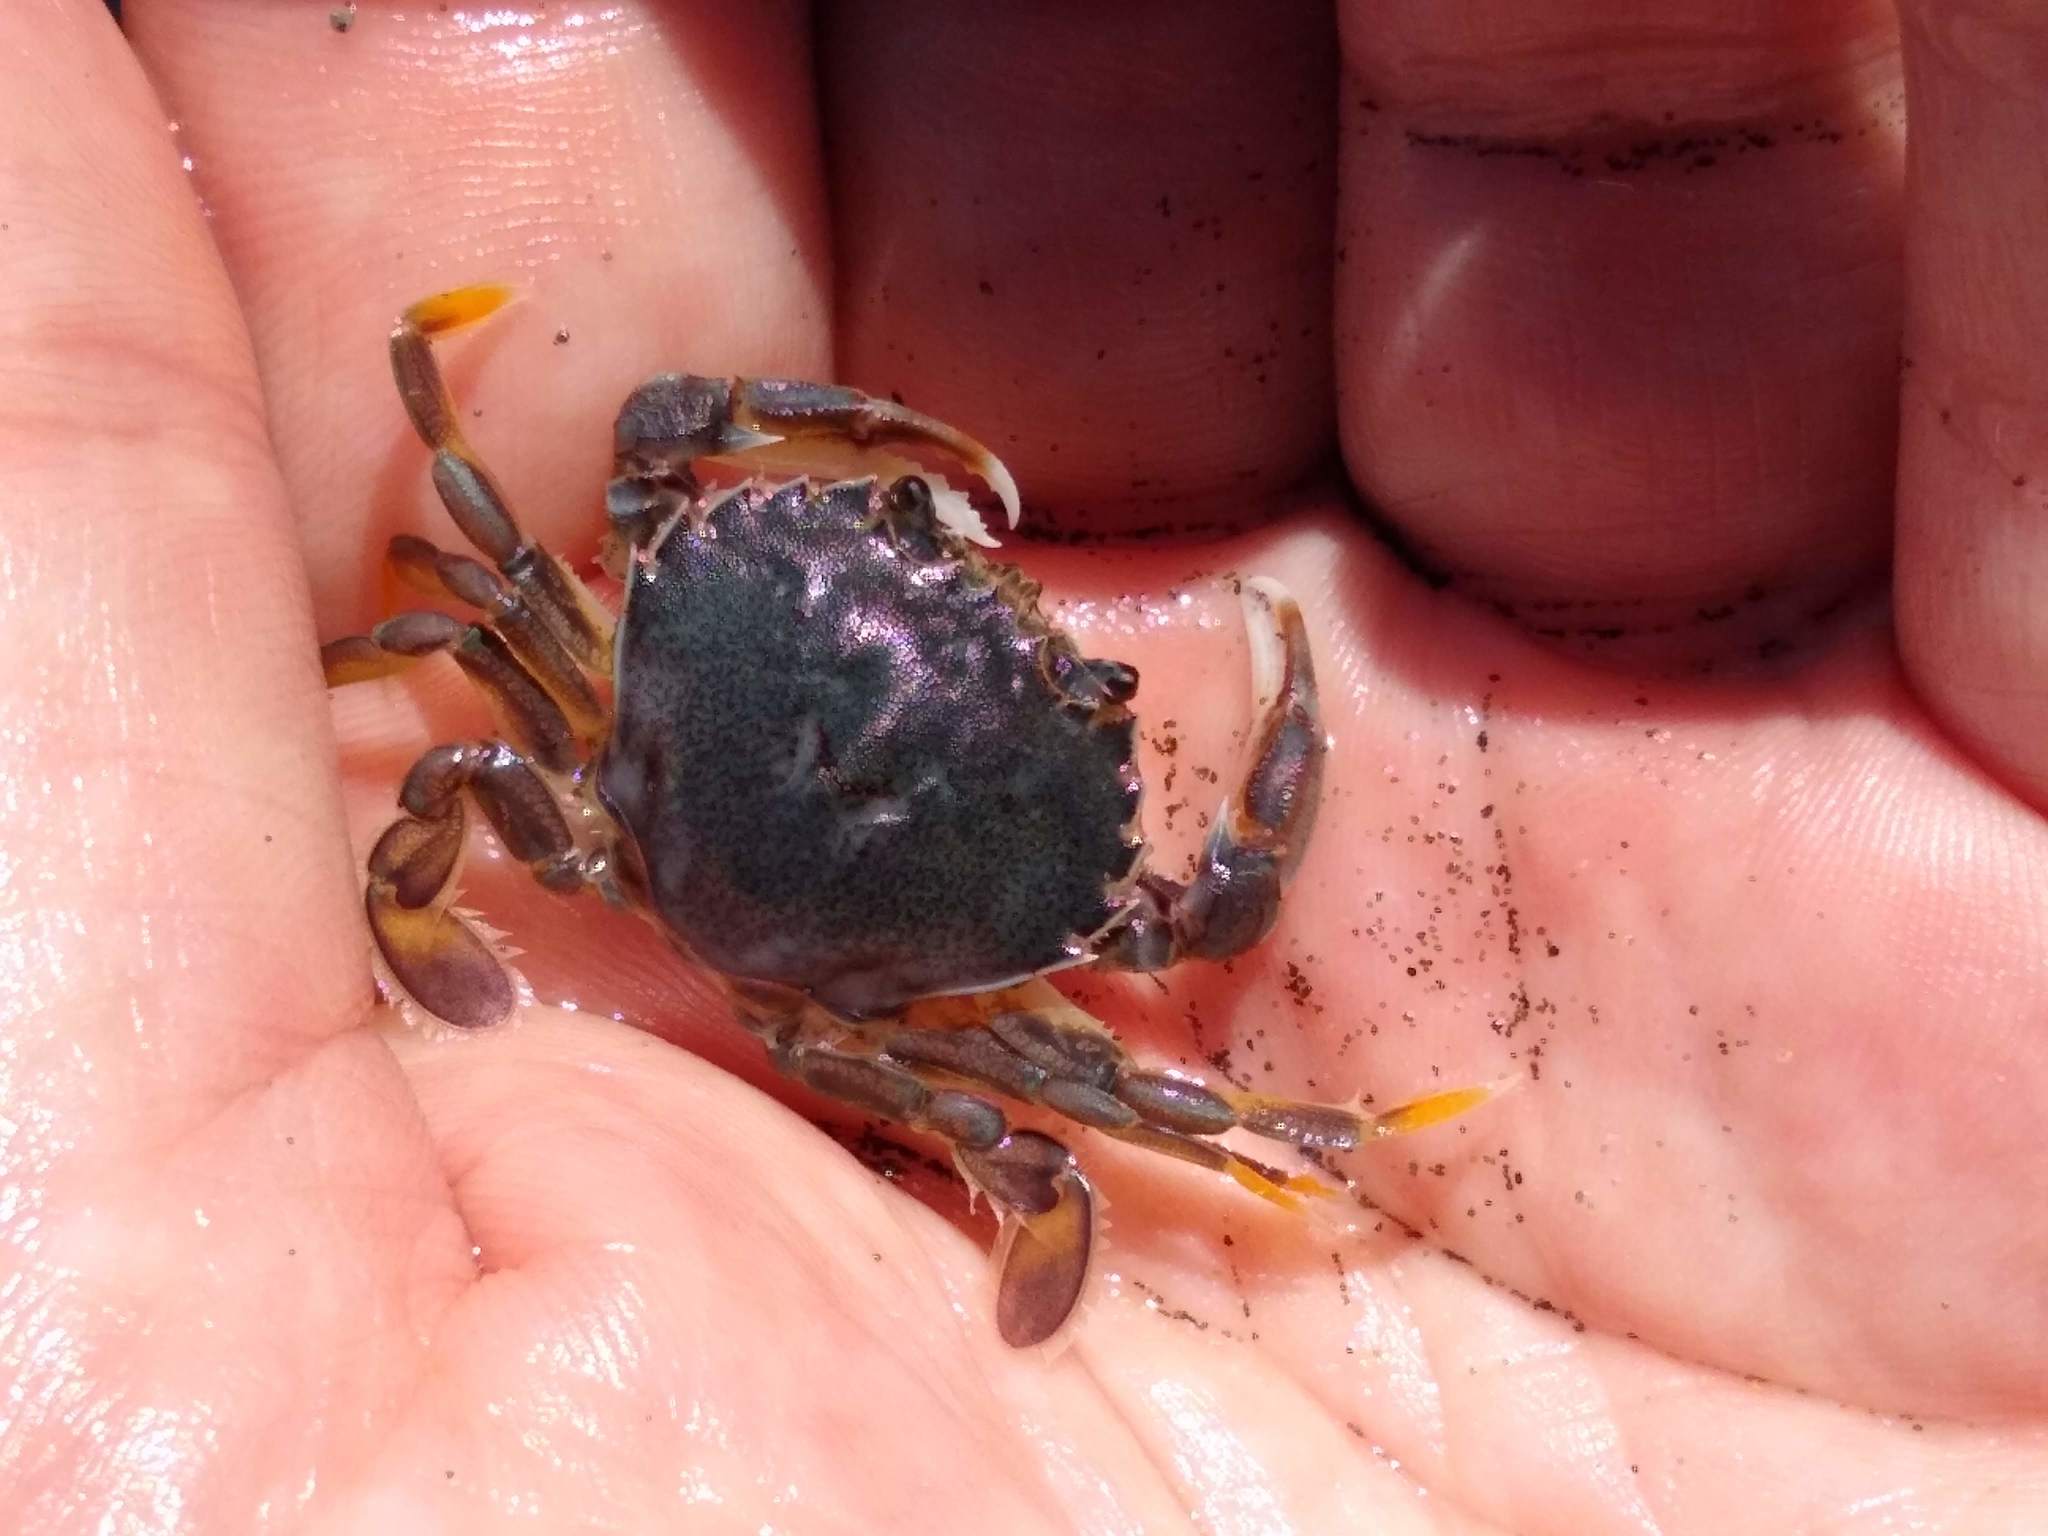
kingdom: Animalia
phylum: Arthropoda
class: Malacostraca
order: Decapoda
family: Ovalipidae
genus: Ovalipes
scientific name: Ovalipes catharus
